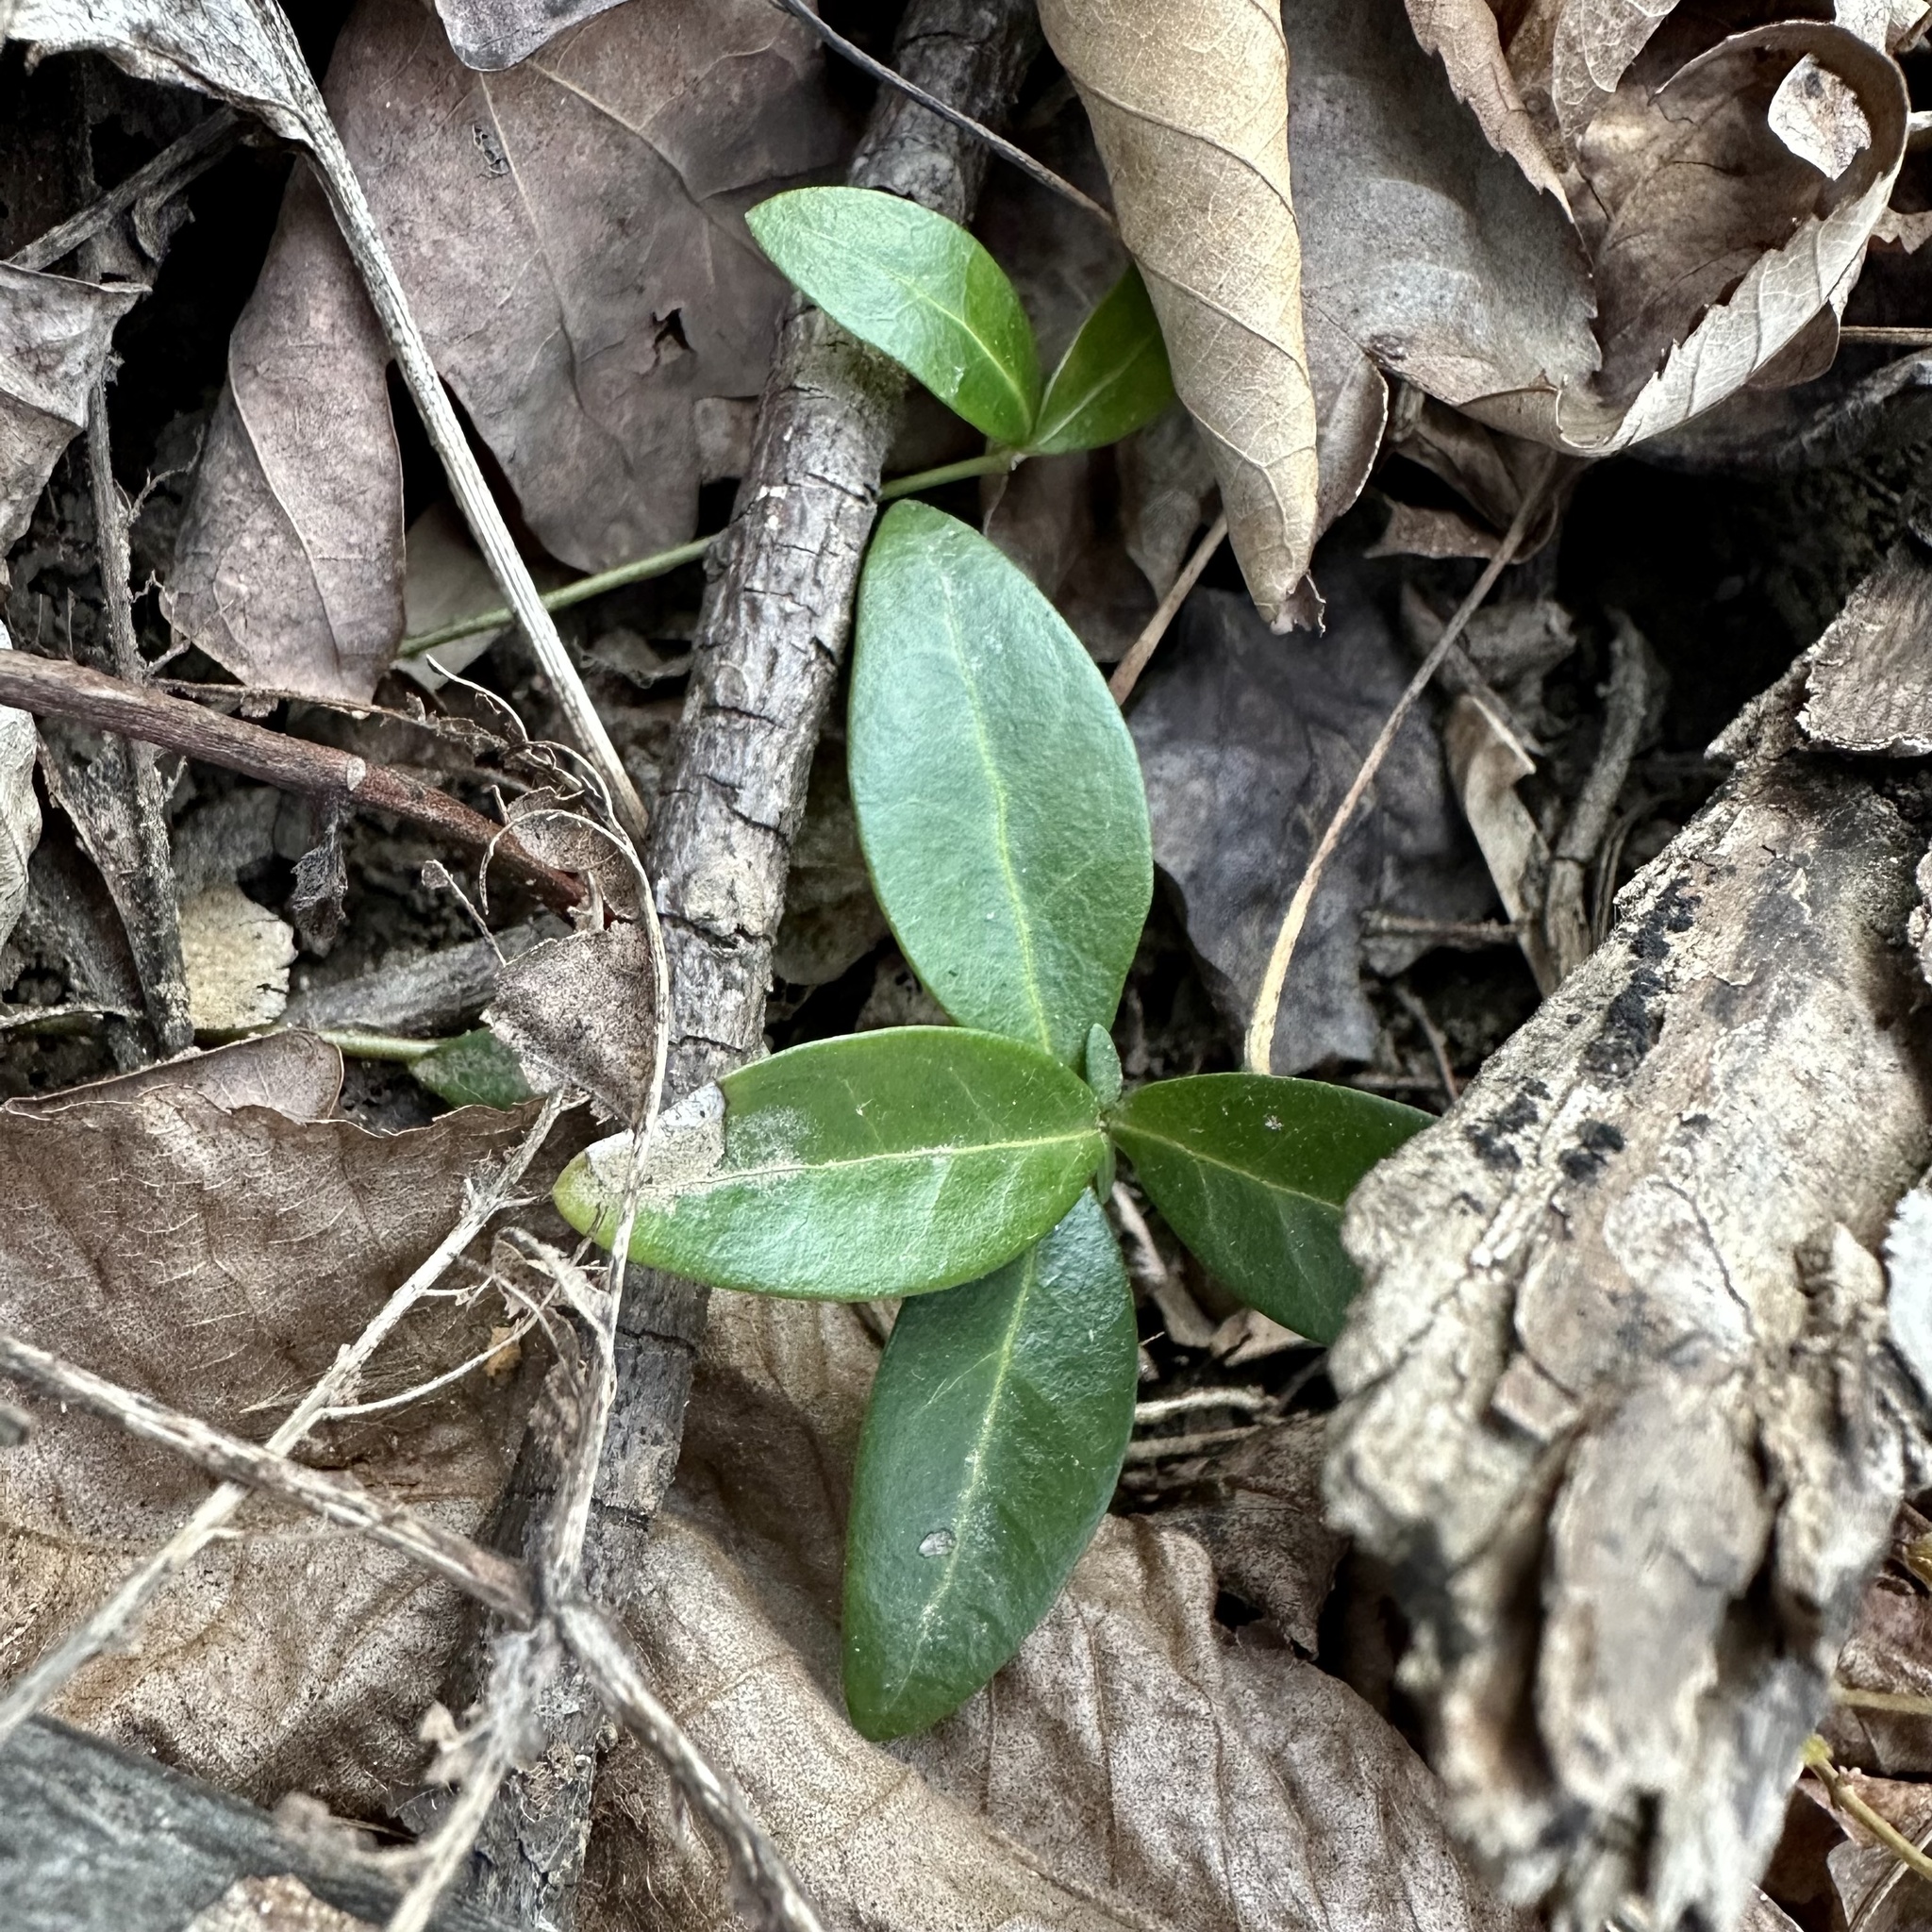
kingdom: Plantae
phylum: Tracheophyta
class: Magnoliopsida
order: Gentianales
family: Apocynaceae
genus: Vinca
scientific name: Vinca minor
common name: Lesser periwinkle
